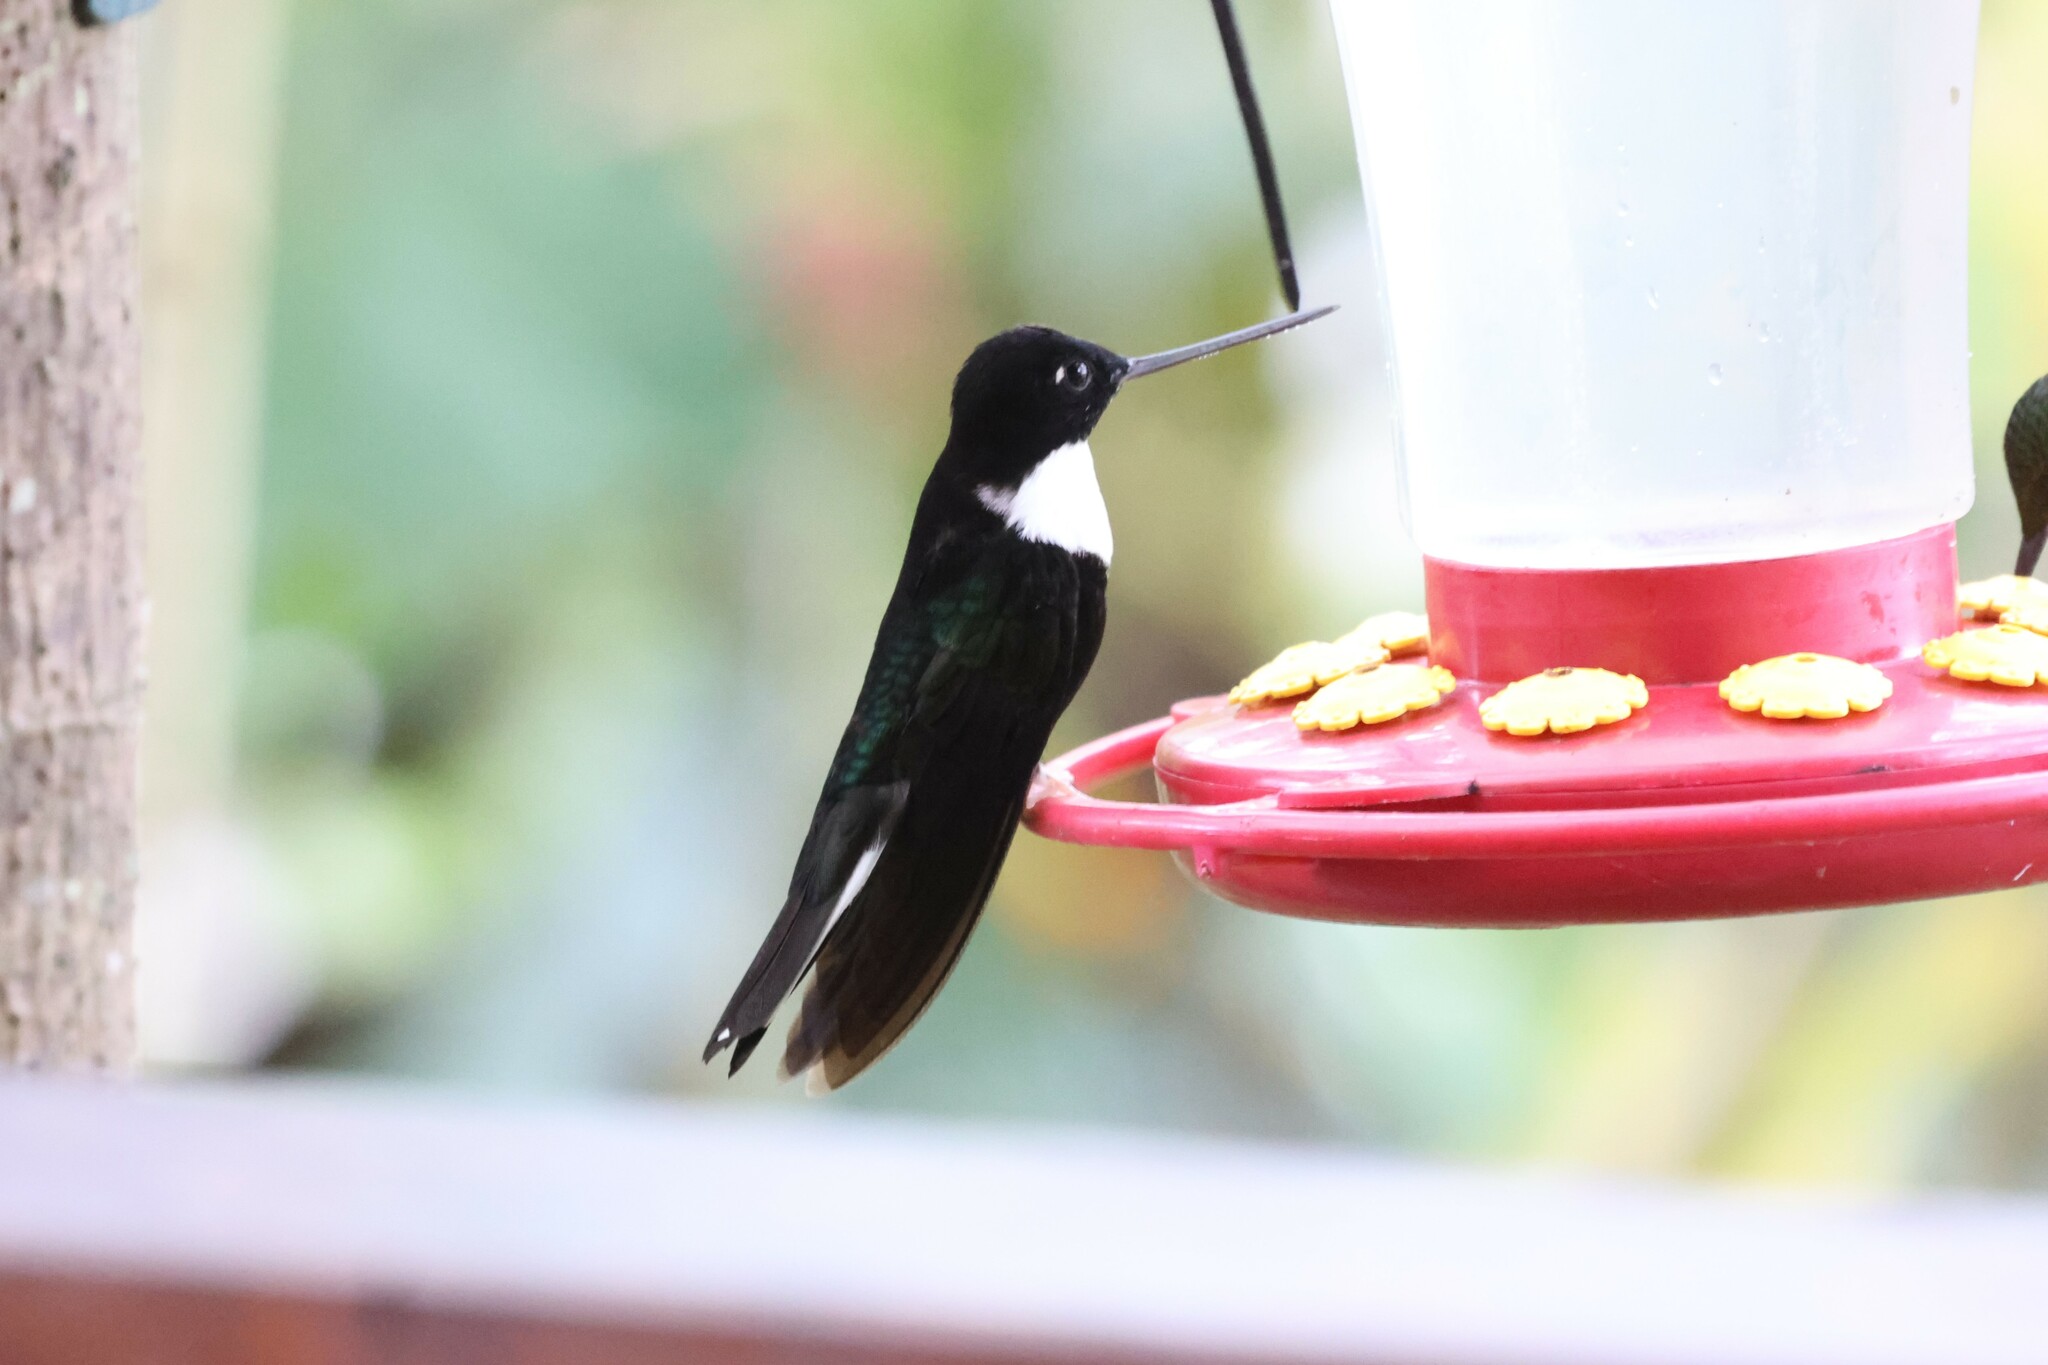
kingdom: Animalia
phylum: Chordata
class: Aves
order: Apodiformes
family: Trochilidae
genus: Coeligena
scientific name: Coeligena torquata
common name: Collared inca
